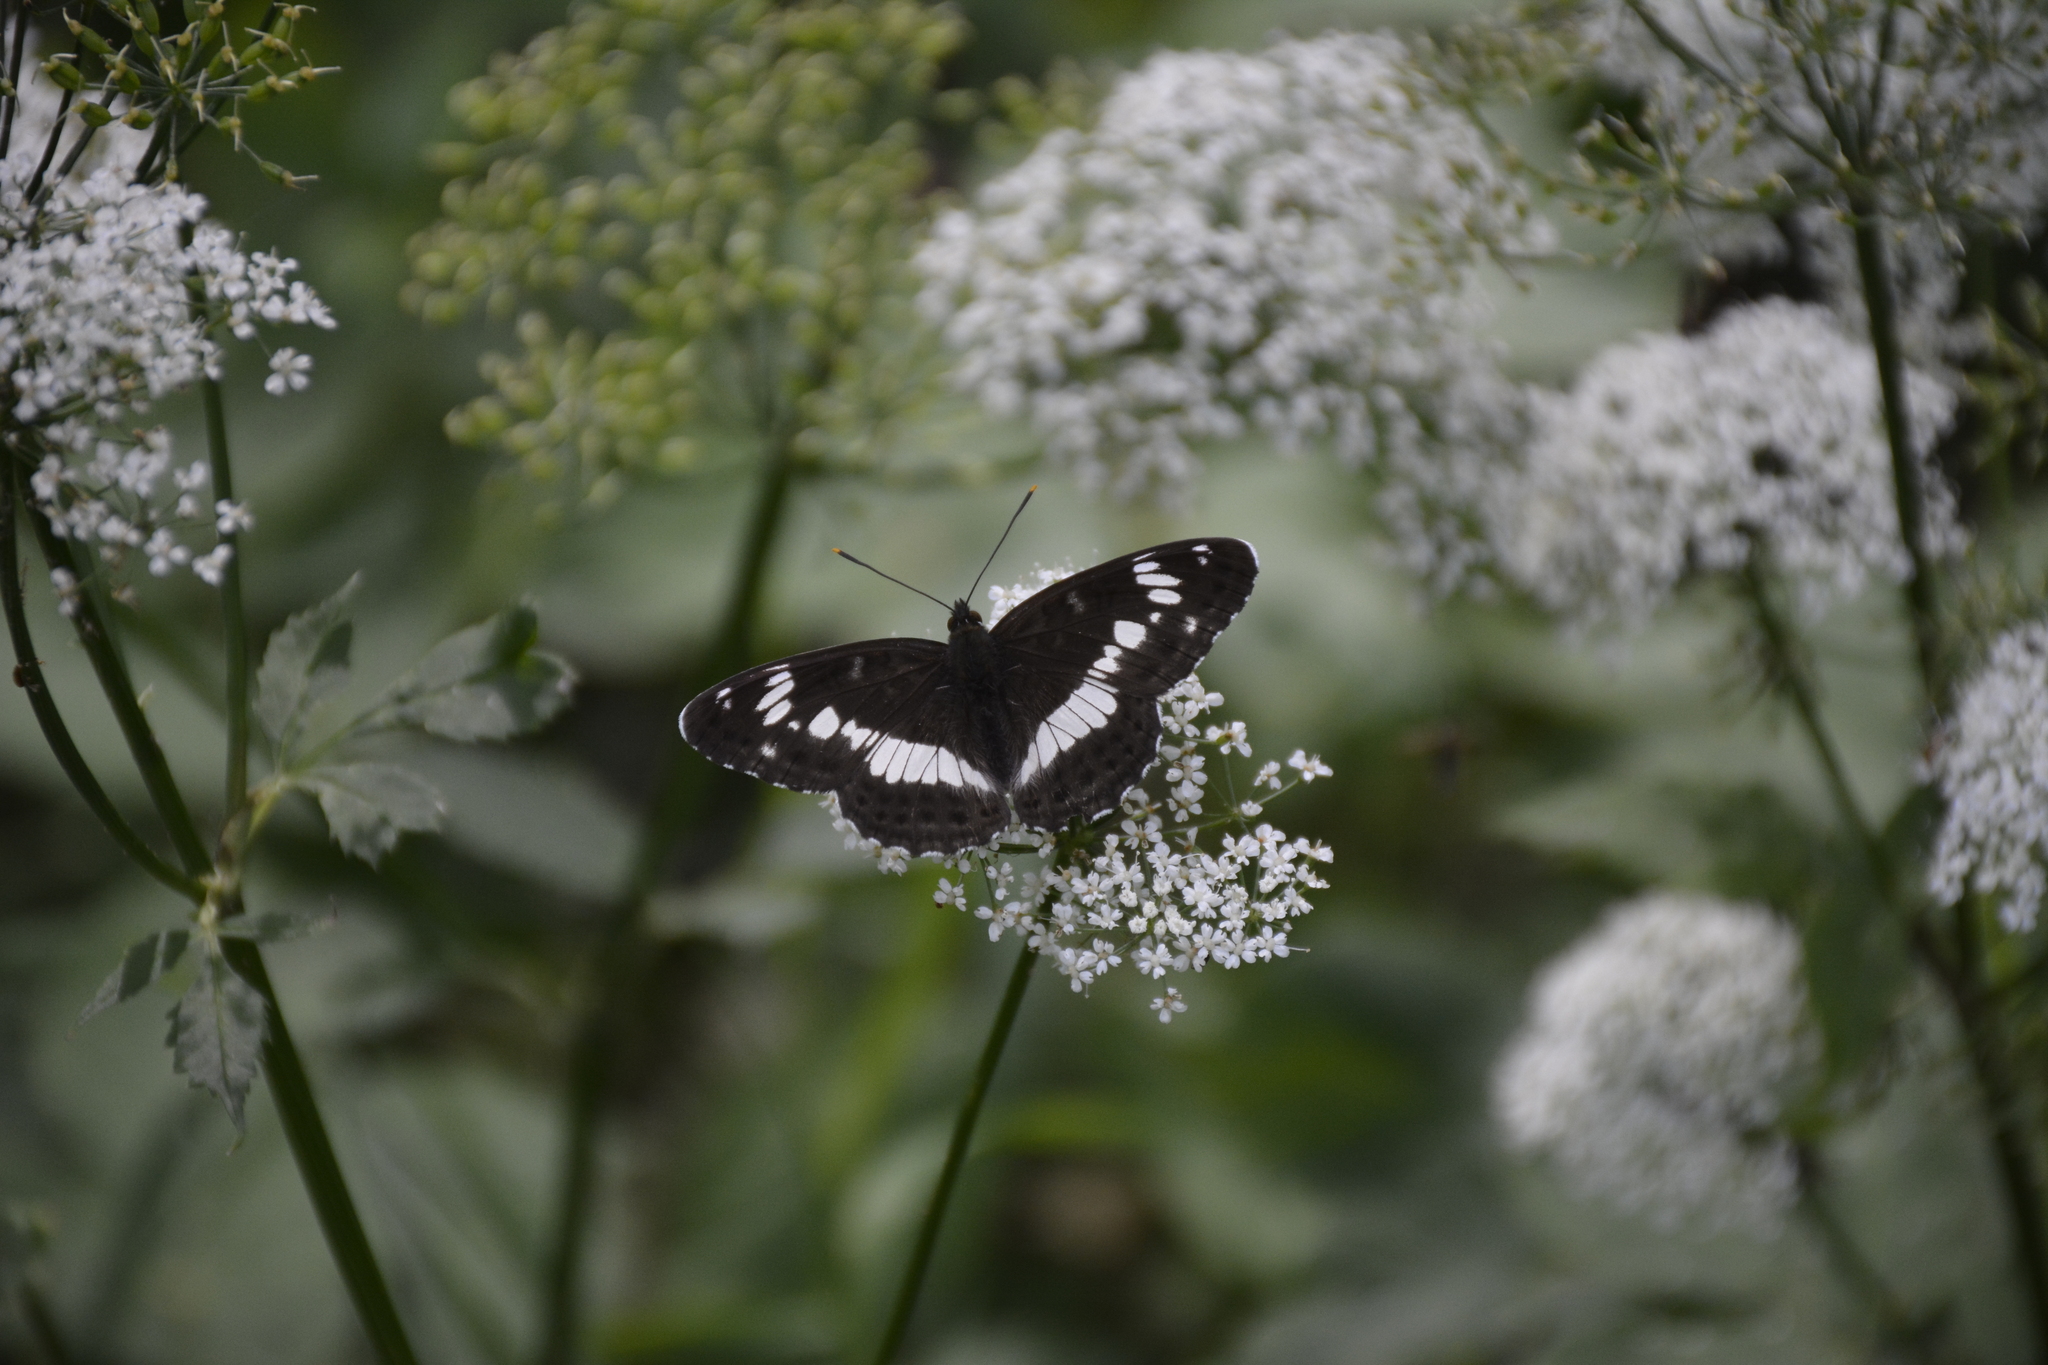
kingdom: Animalia
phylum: Arthropoda
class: Insecta
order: Lepidoptera
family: Nymphalidae
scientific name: Nymphalidae
